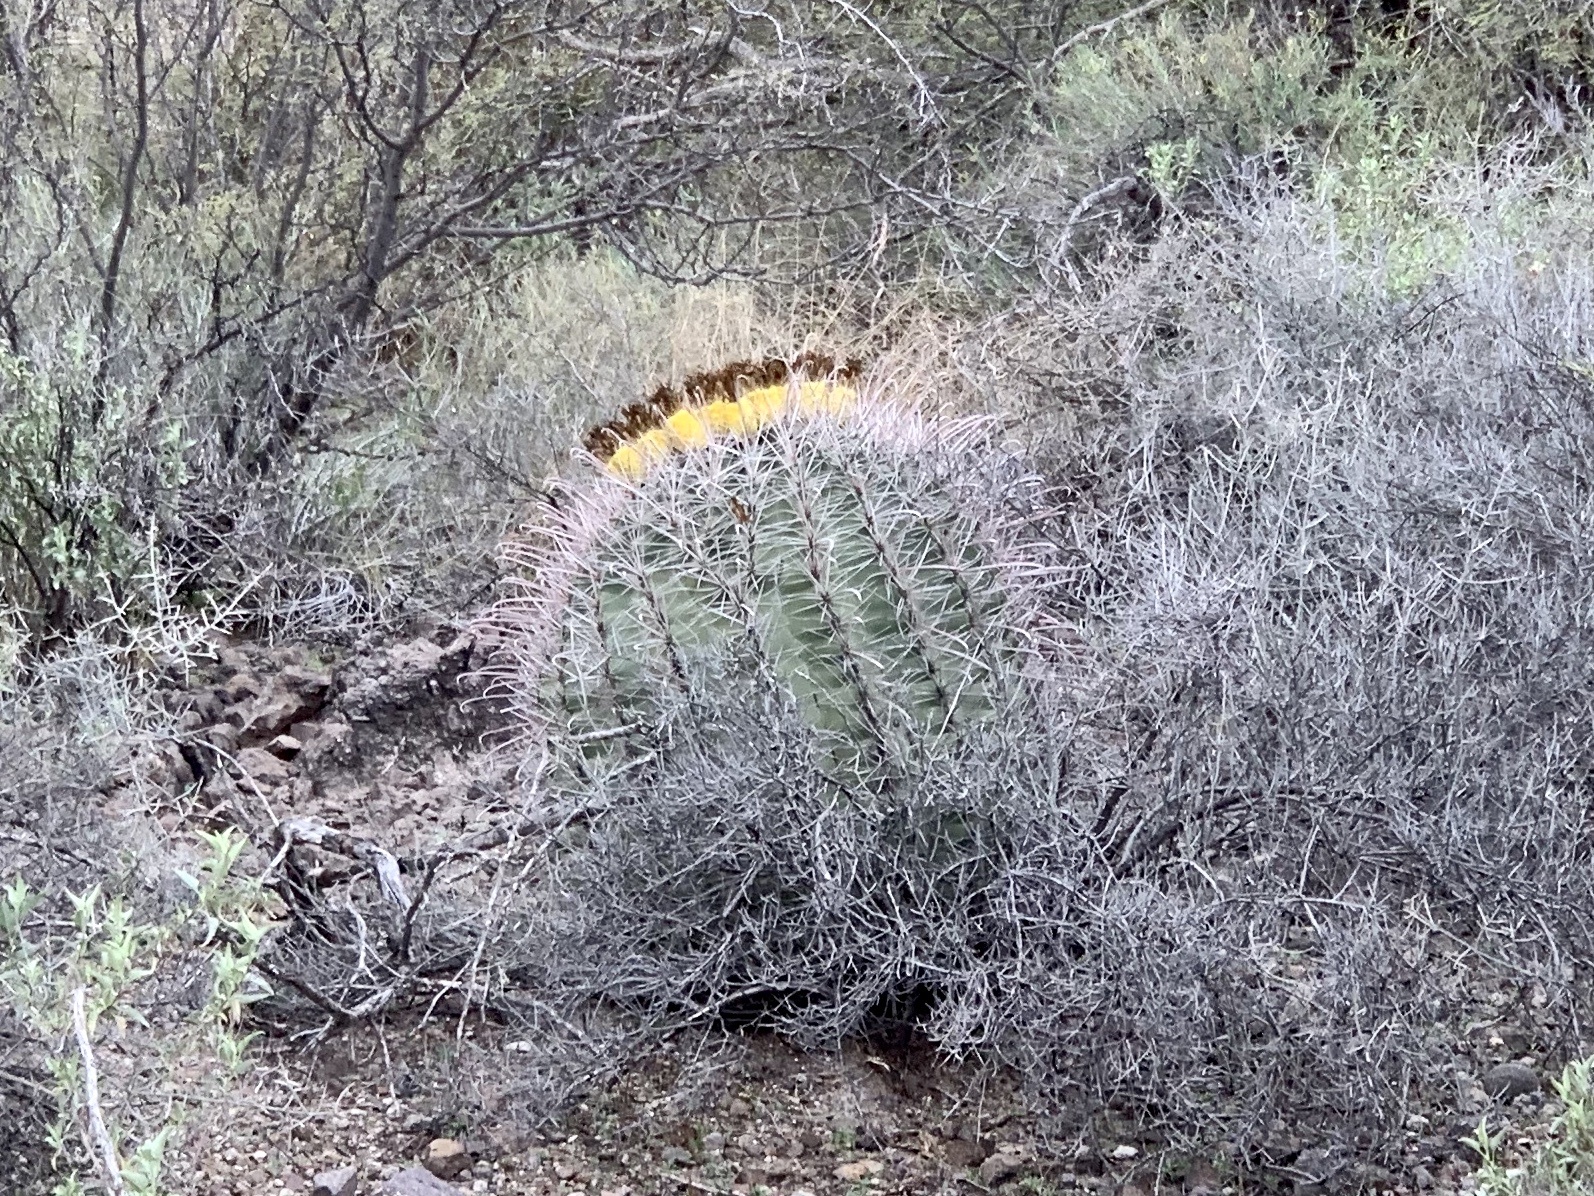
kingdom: Plantae
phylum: Tracheophyta
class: Magnoliopsida
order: Caryophyllales
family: Cactaceae
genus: Ferocactus
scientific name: Ferocactus wislizeni
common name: Candy barrel cactus
